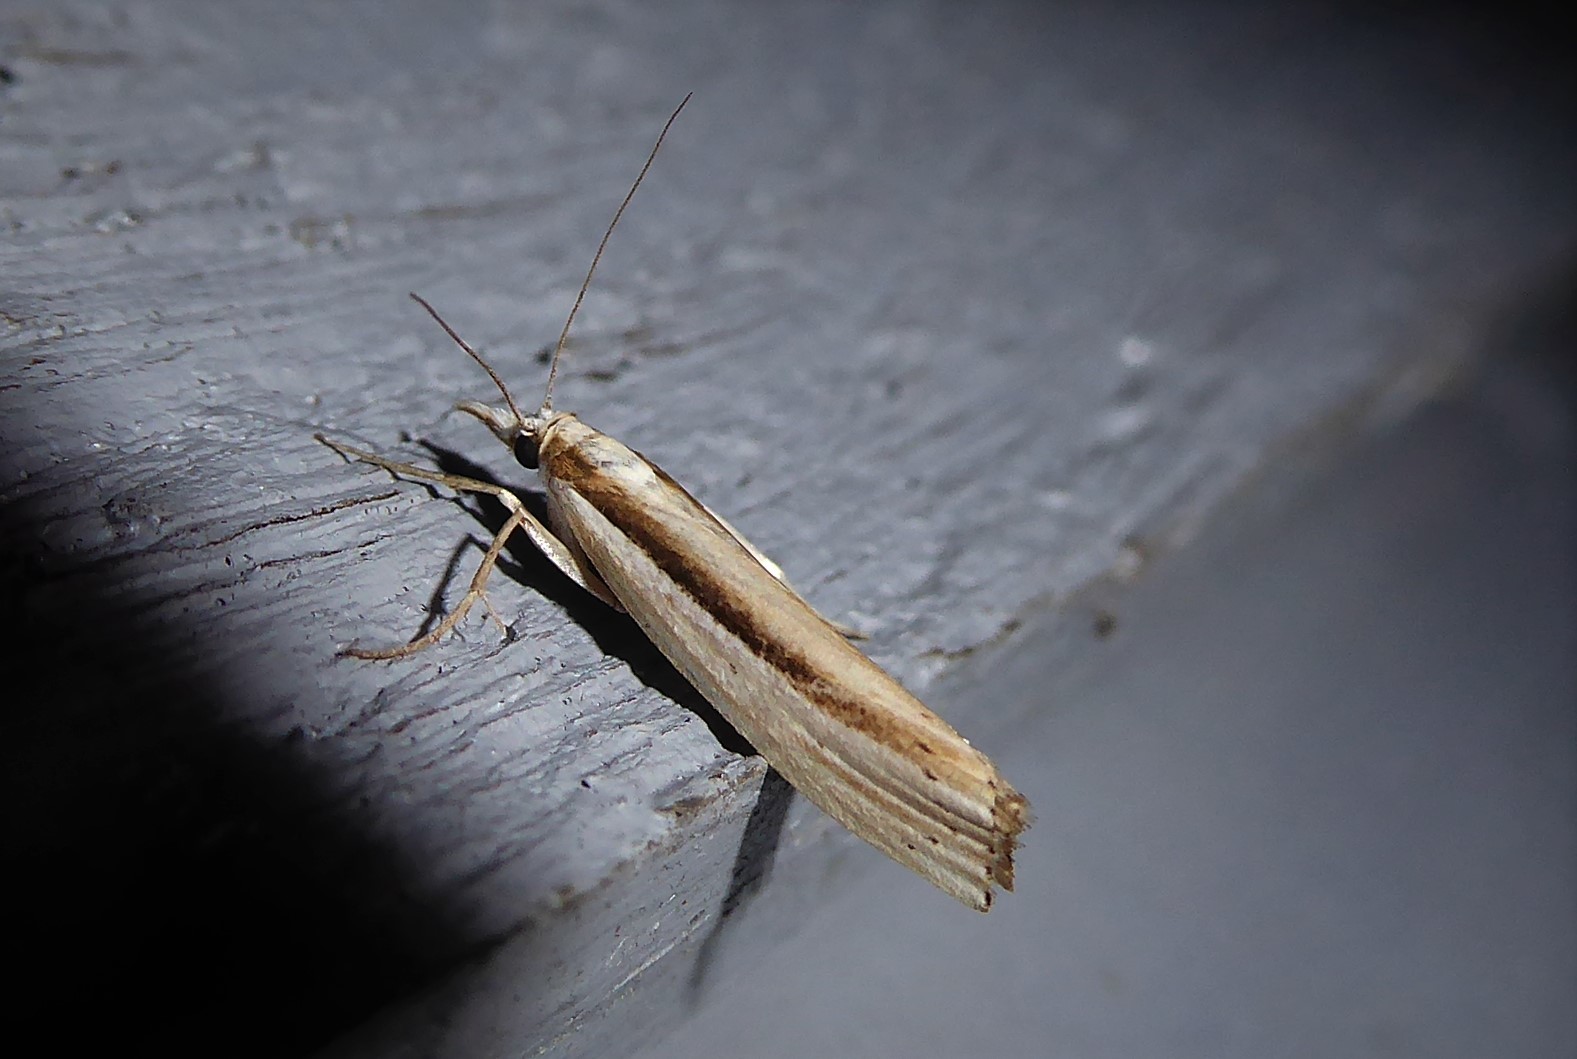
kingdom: Animalia
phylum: Arthropoda
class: Insecta
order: Lepidoptera
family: Crambidae
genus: Orocrambus
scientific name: Orocrambus ramosellus
